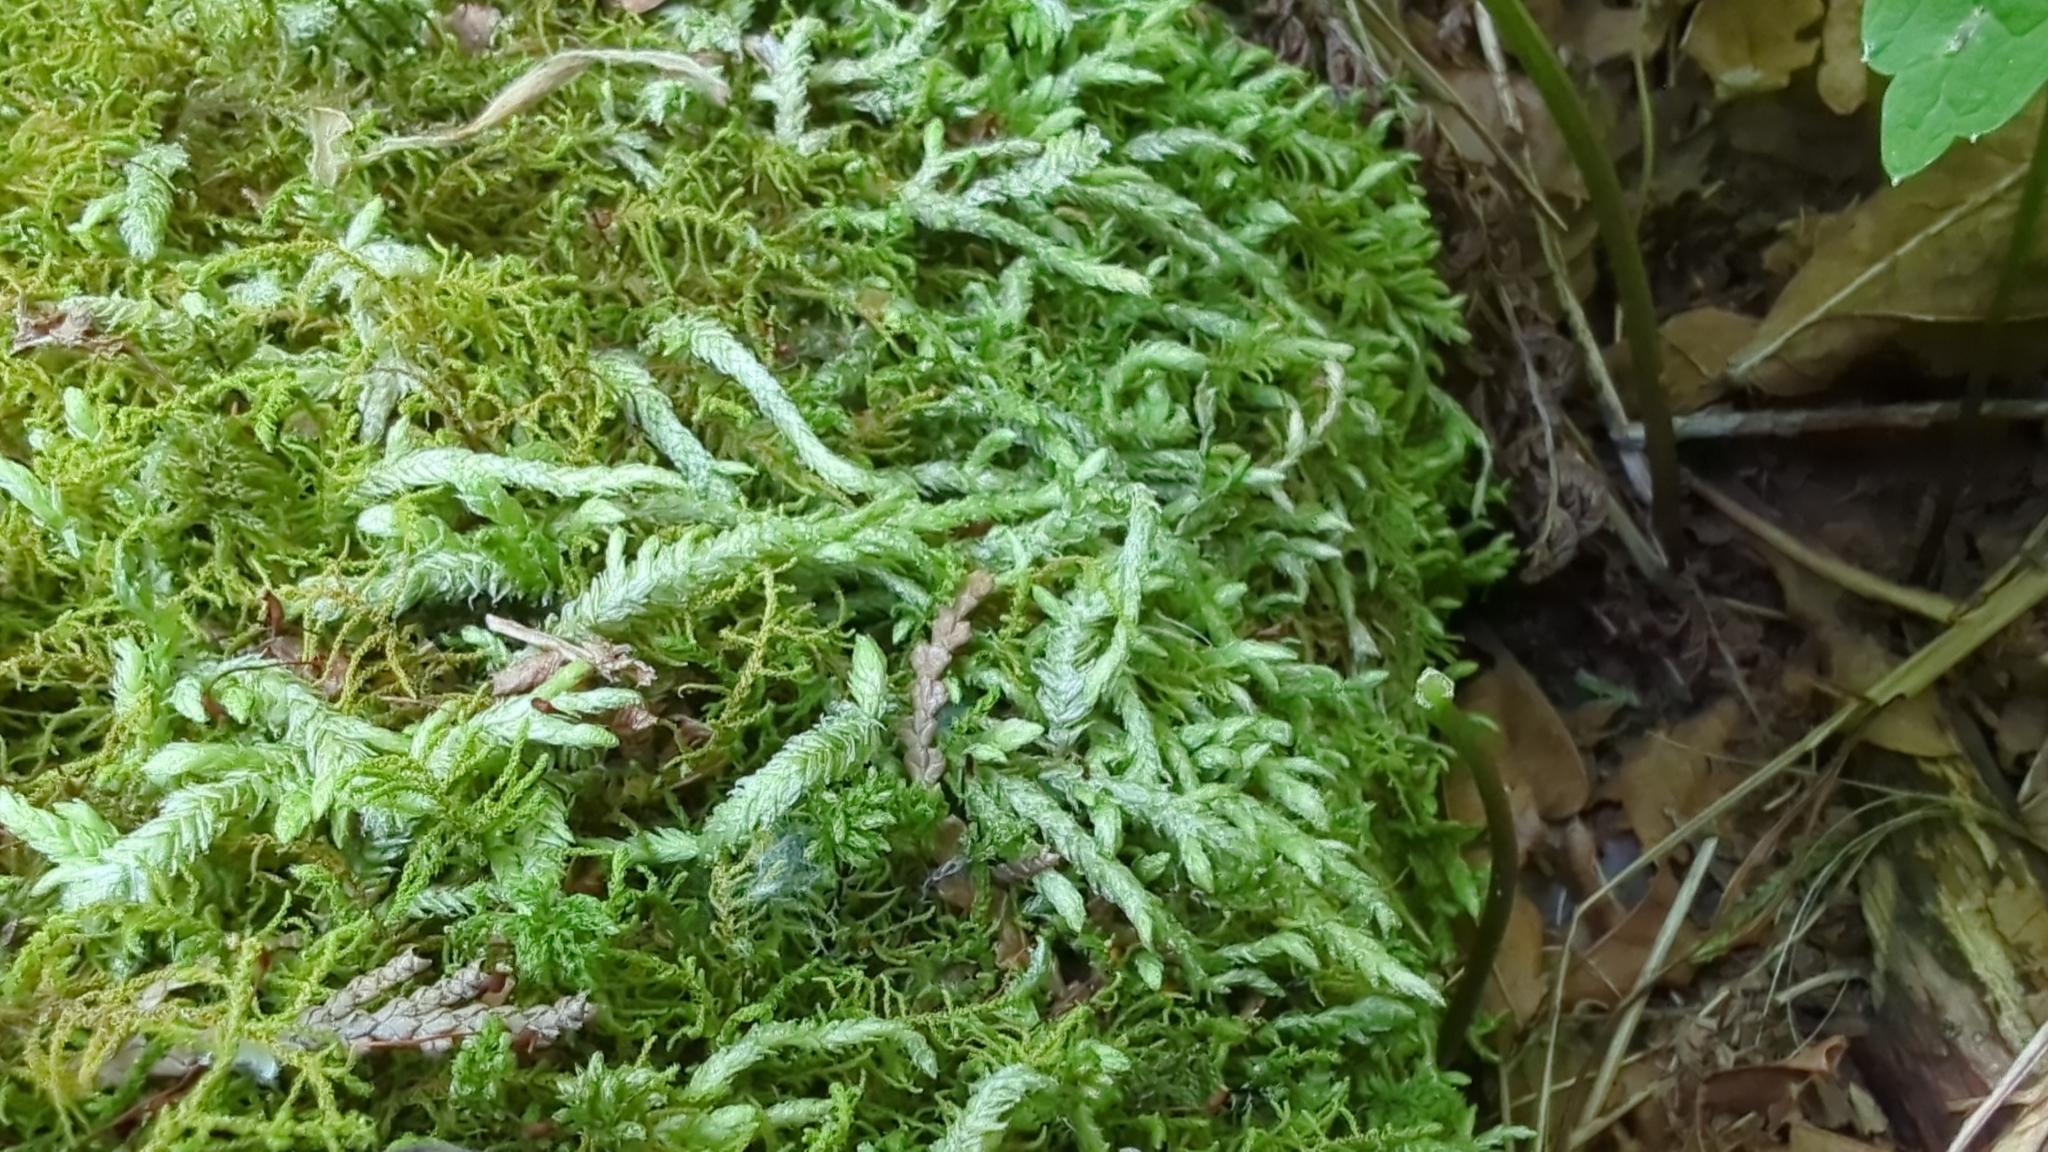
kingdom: Plantae
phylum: Bryophyta
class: Bryopsida
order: Hypnales
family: Plagiotheciaceae
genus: Plagiothecium
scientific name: Plagiothecium undulatum
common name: Waved silk-moss
